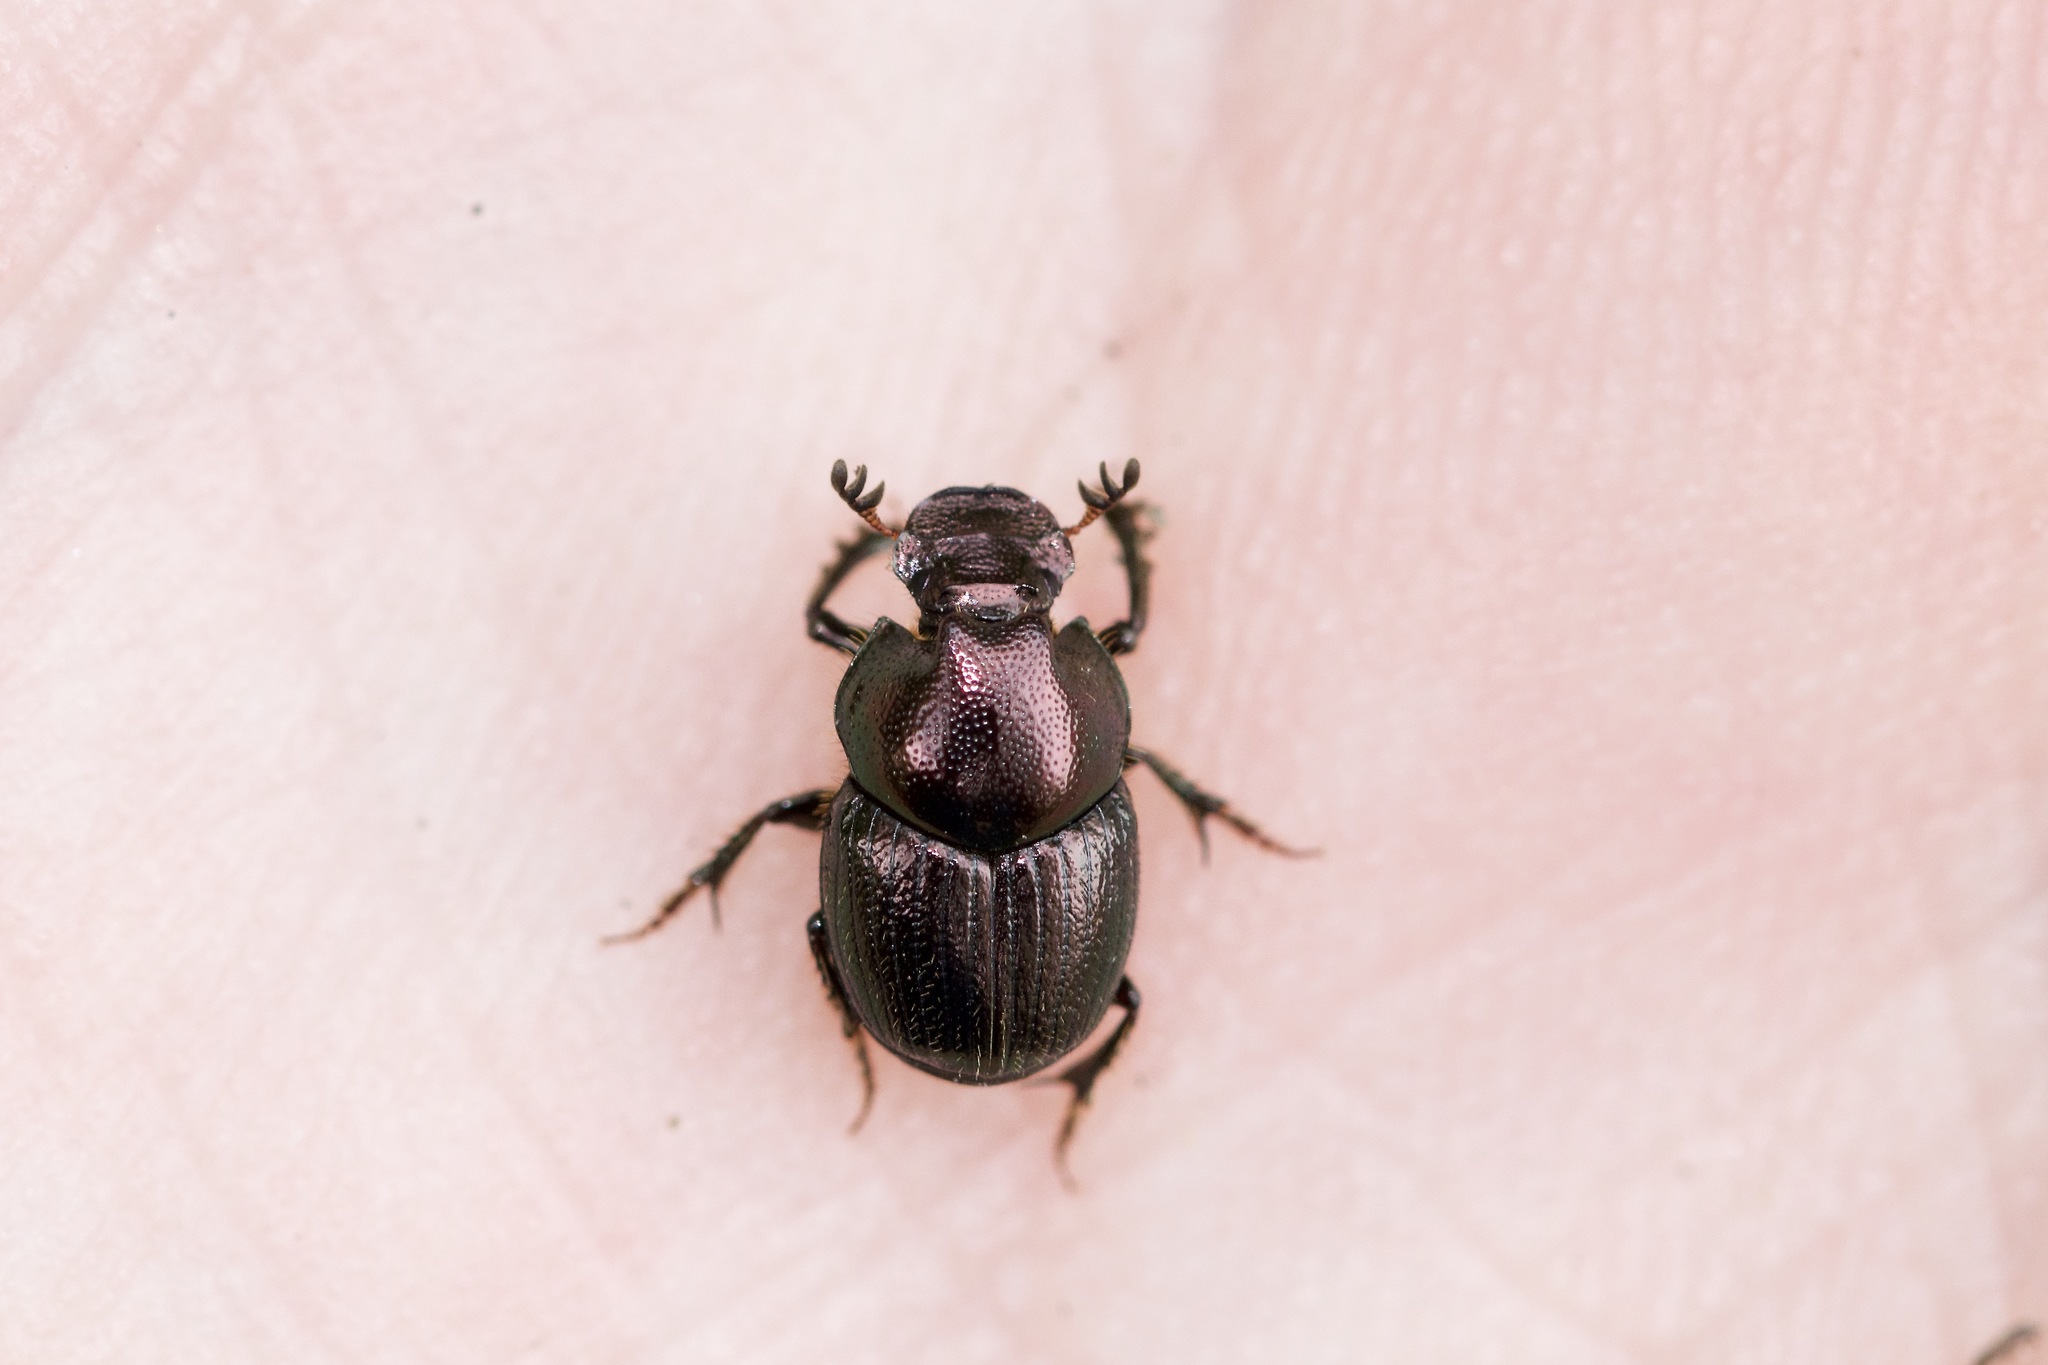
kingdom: Animalia
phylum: Arthropoda
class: Insecta
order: Coleoptera
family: Scarabaeidae
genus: Onthophagus
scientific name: Onthophagus orpheus
